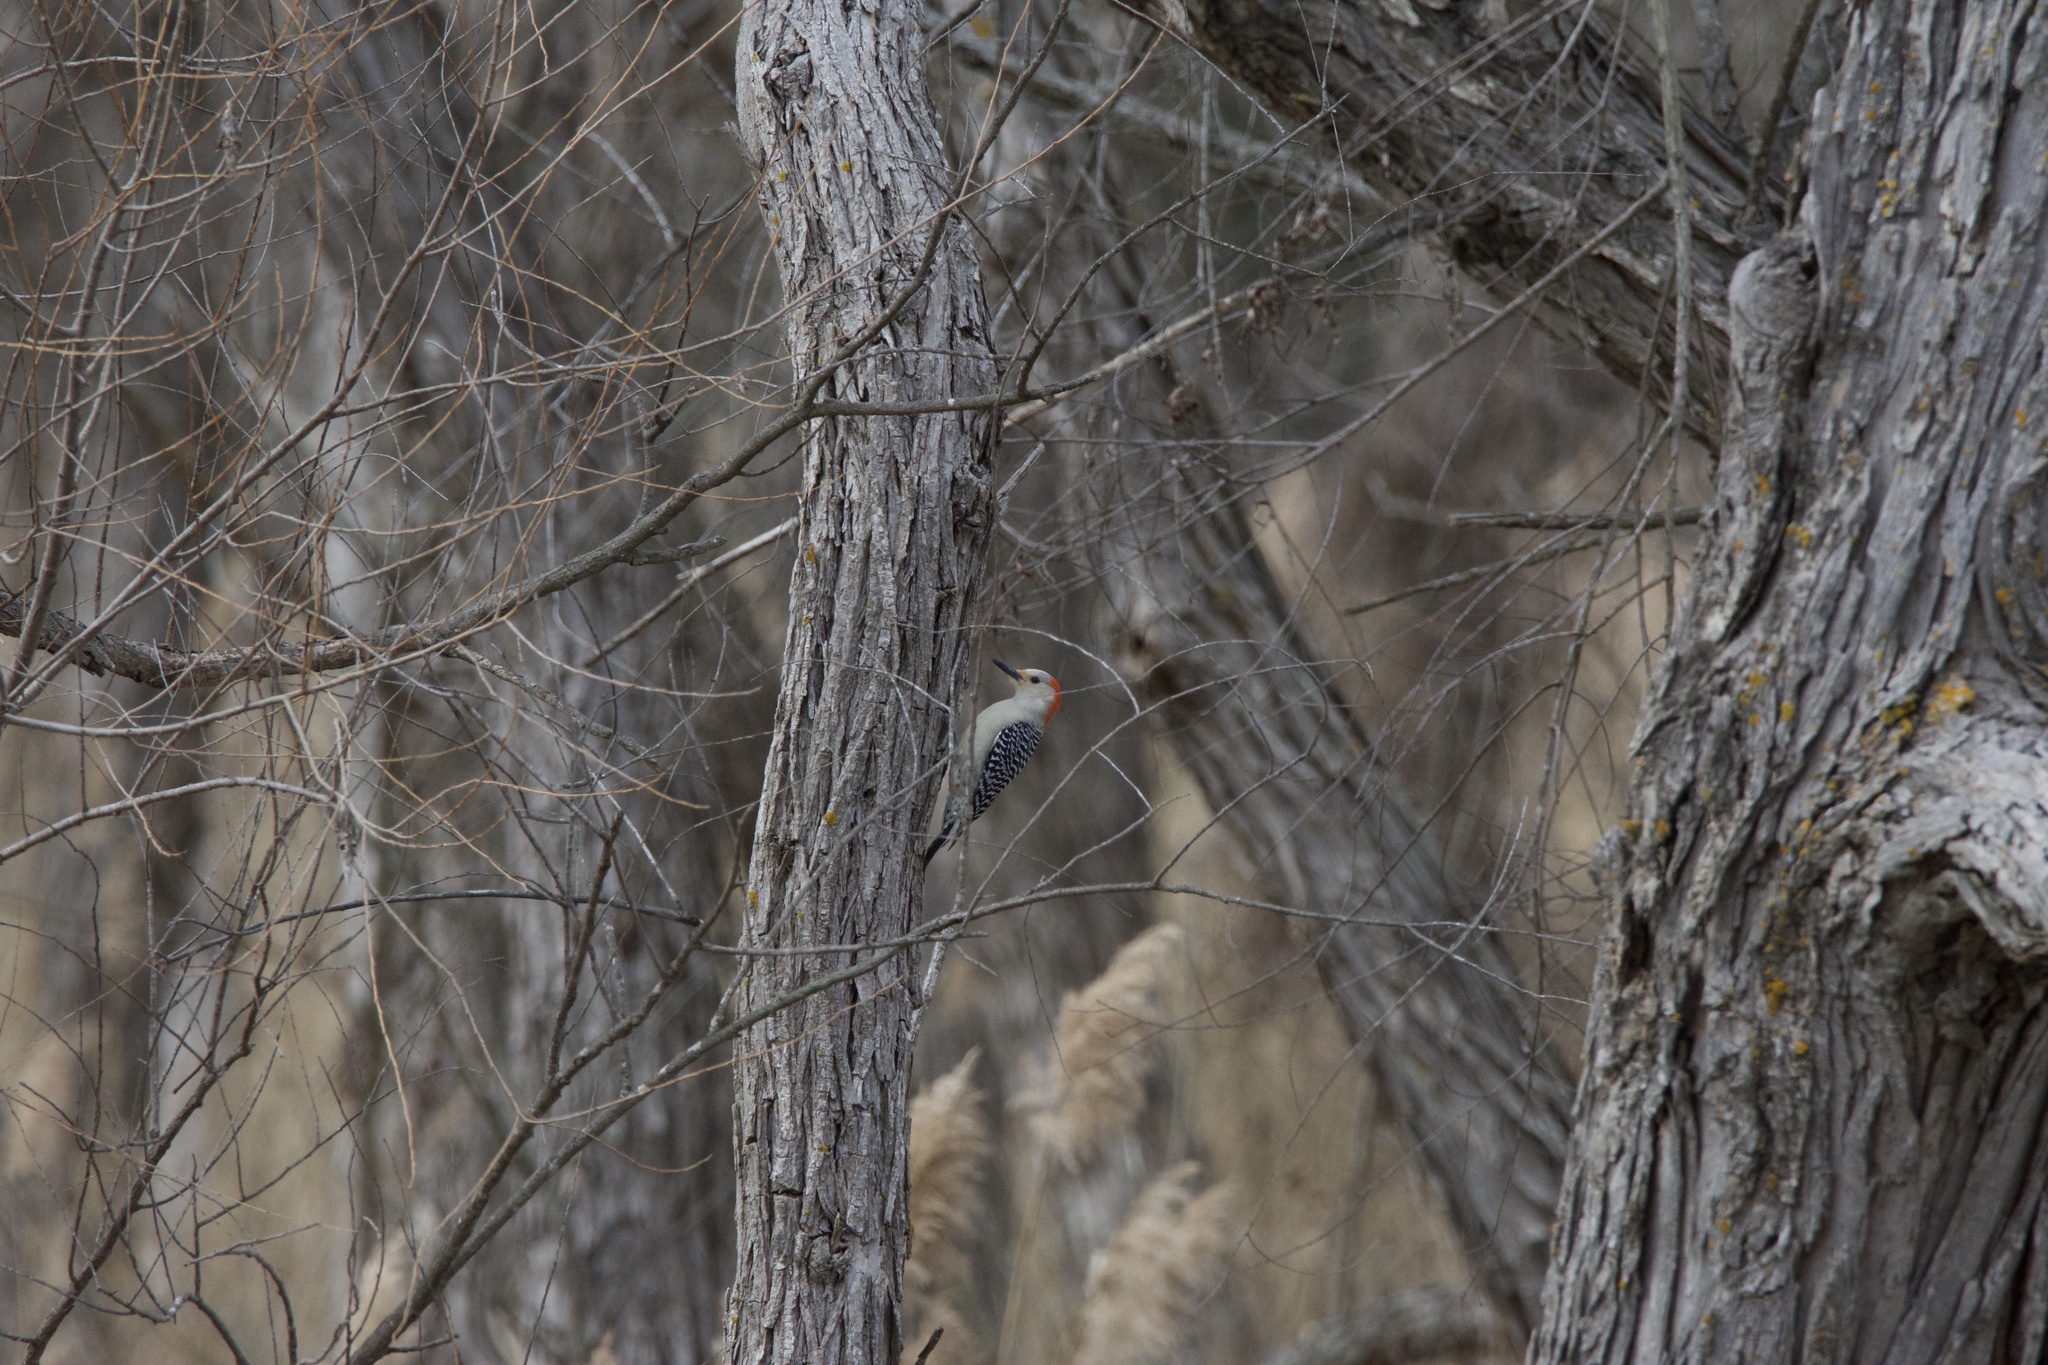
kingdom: Animalia
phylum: Chordata
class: Aves
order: Piciformes
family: Picidae
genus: Melanerpes
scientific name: Melanerpes carolinus
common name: Red-bellied woodpecker
